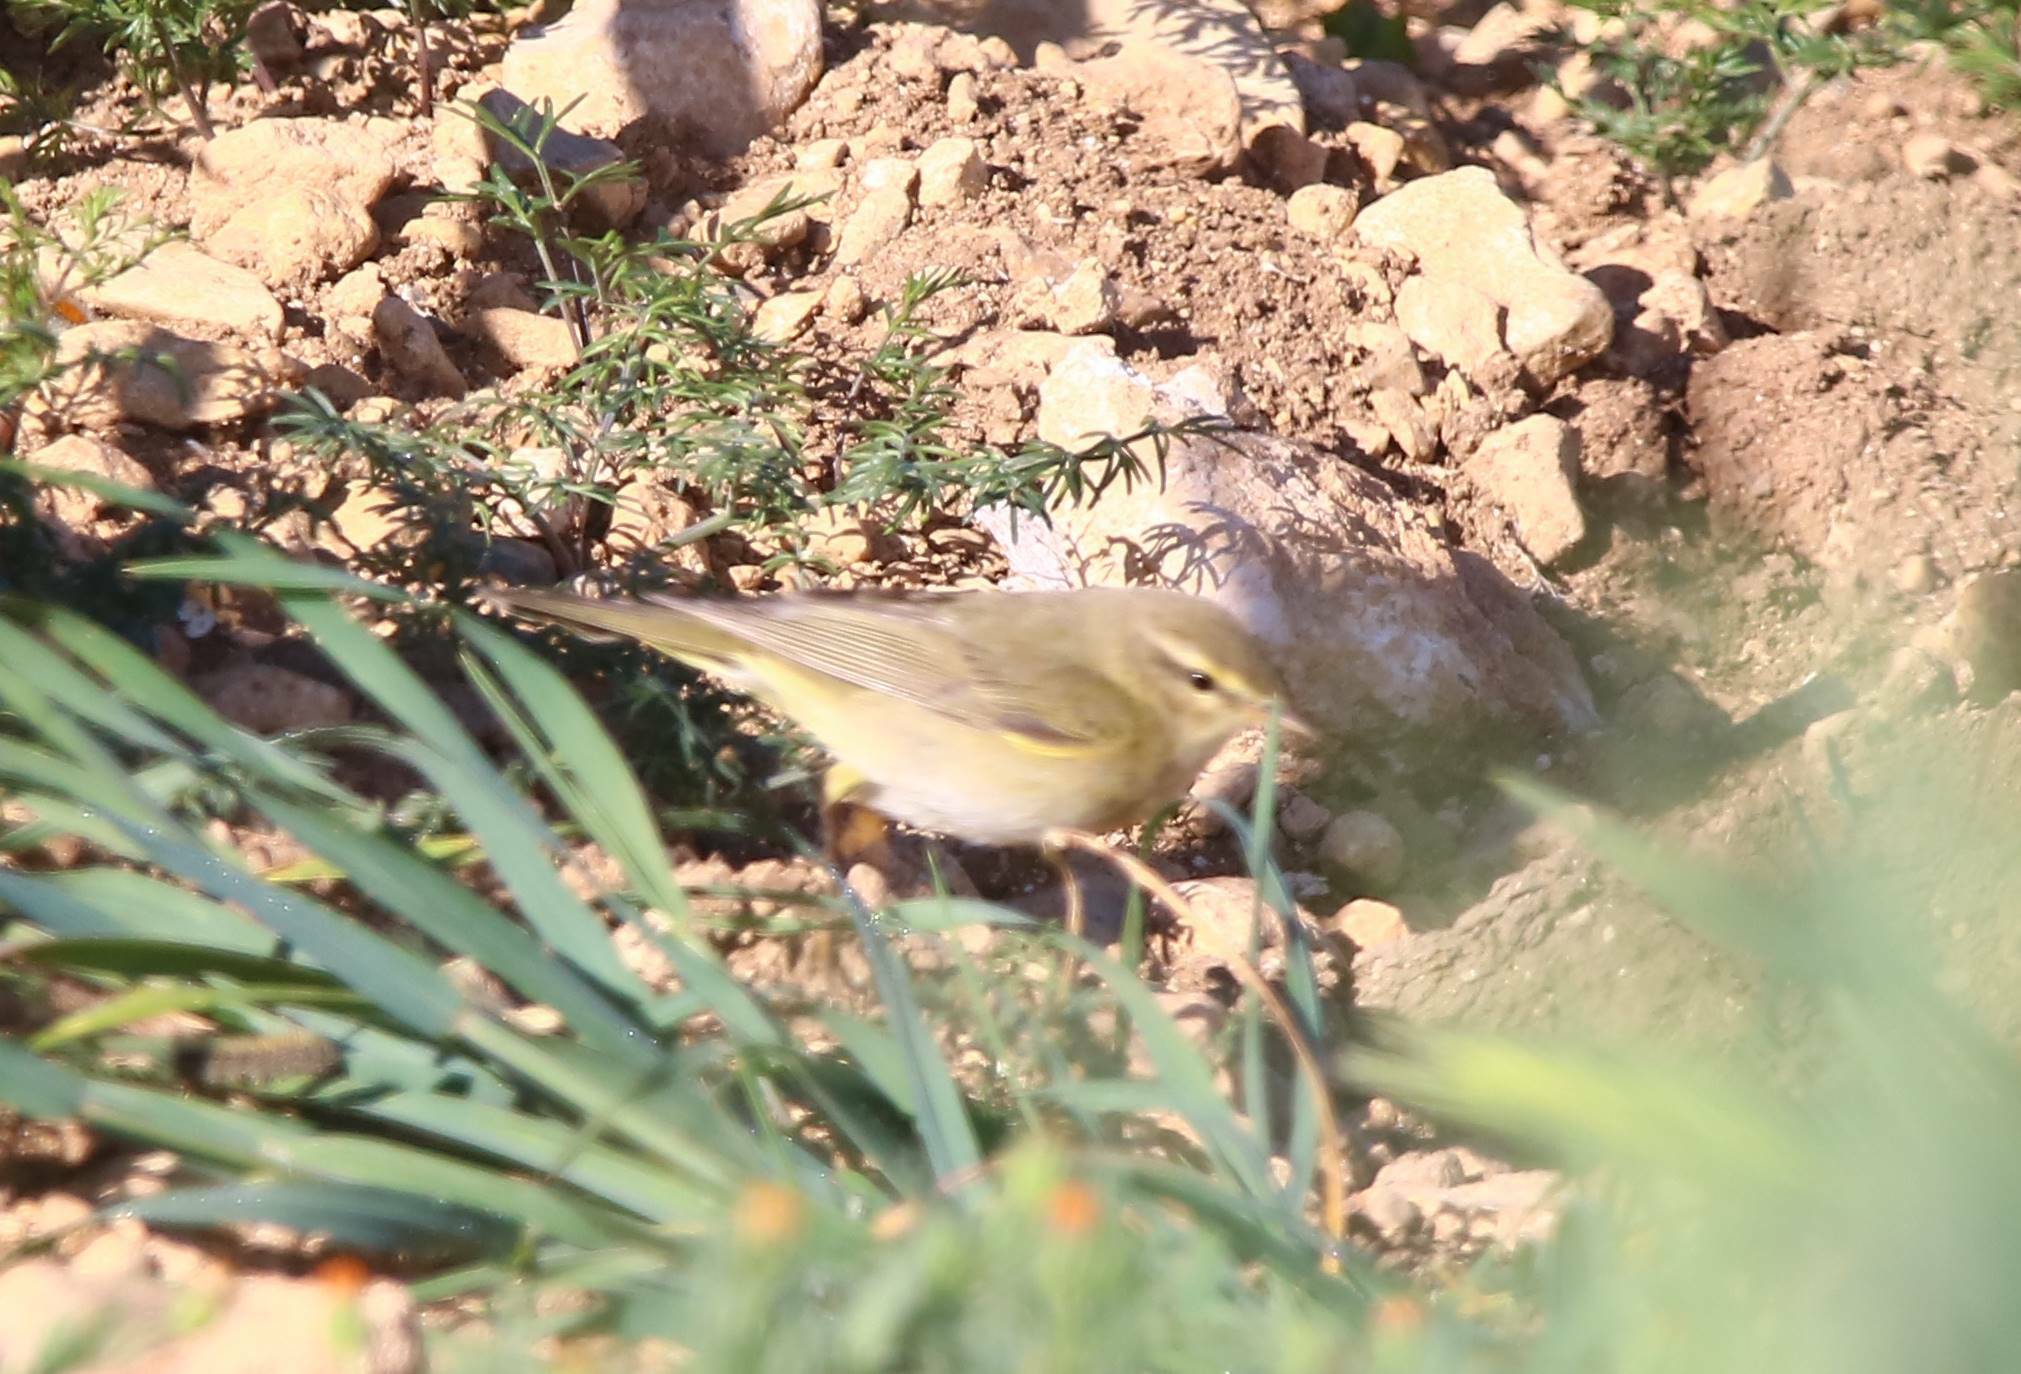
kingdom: Animalia
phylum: Chordata
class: Aves
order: Passeriformes
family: Phylloscopidae
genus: Phylloscopus
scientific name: Phylloscopus trochilus
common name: Willow warbler
